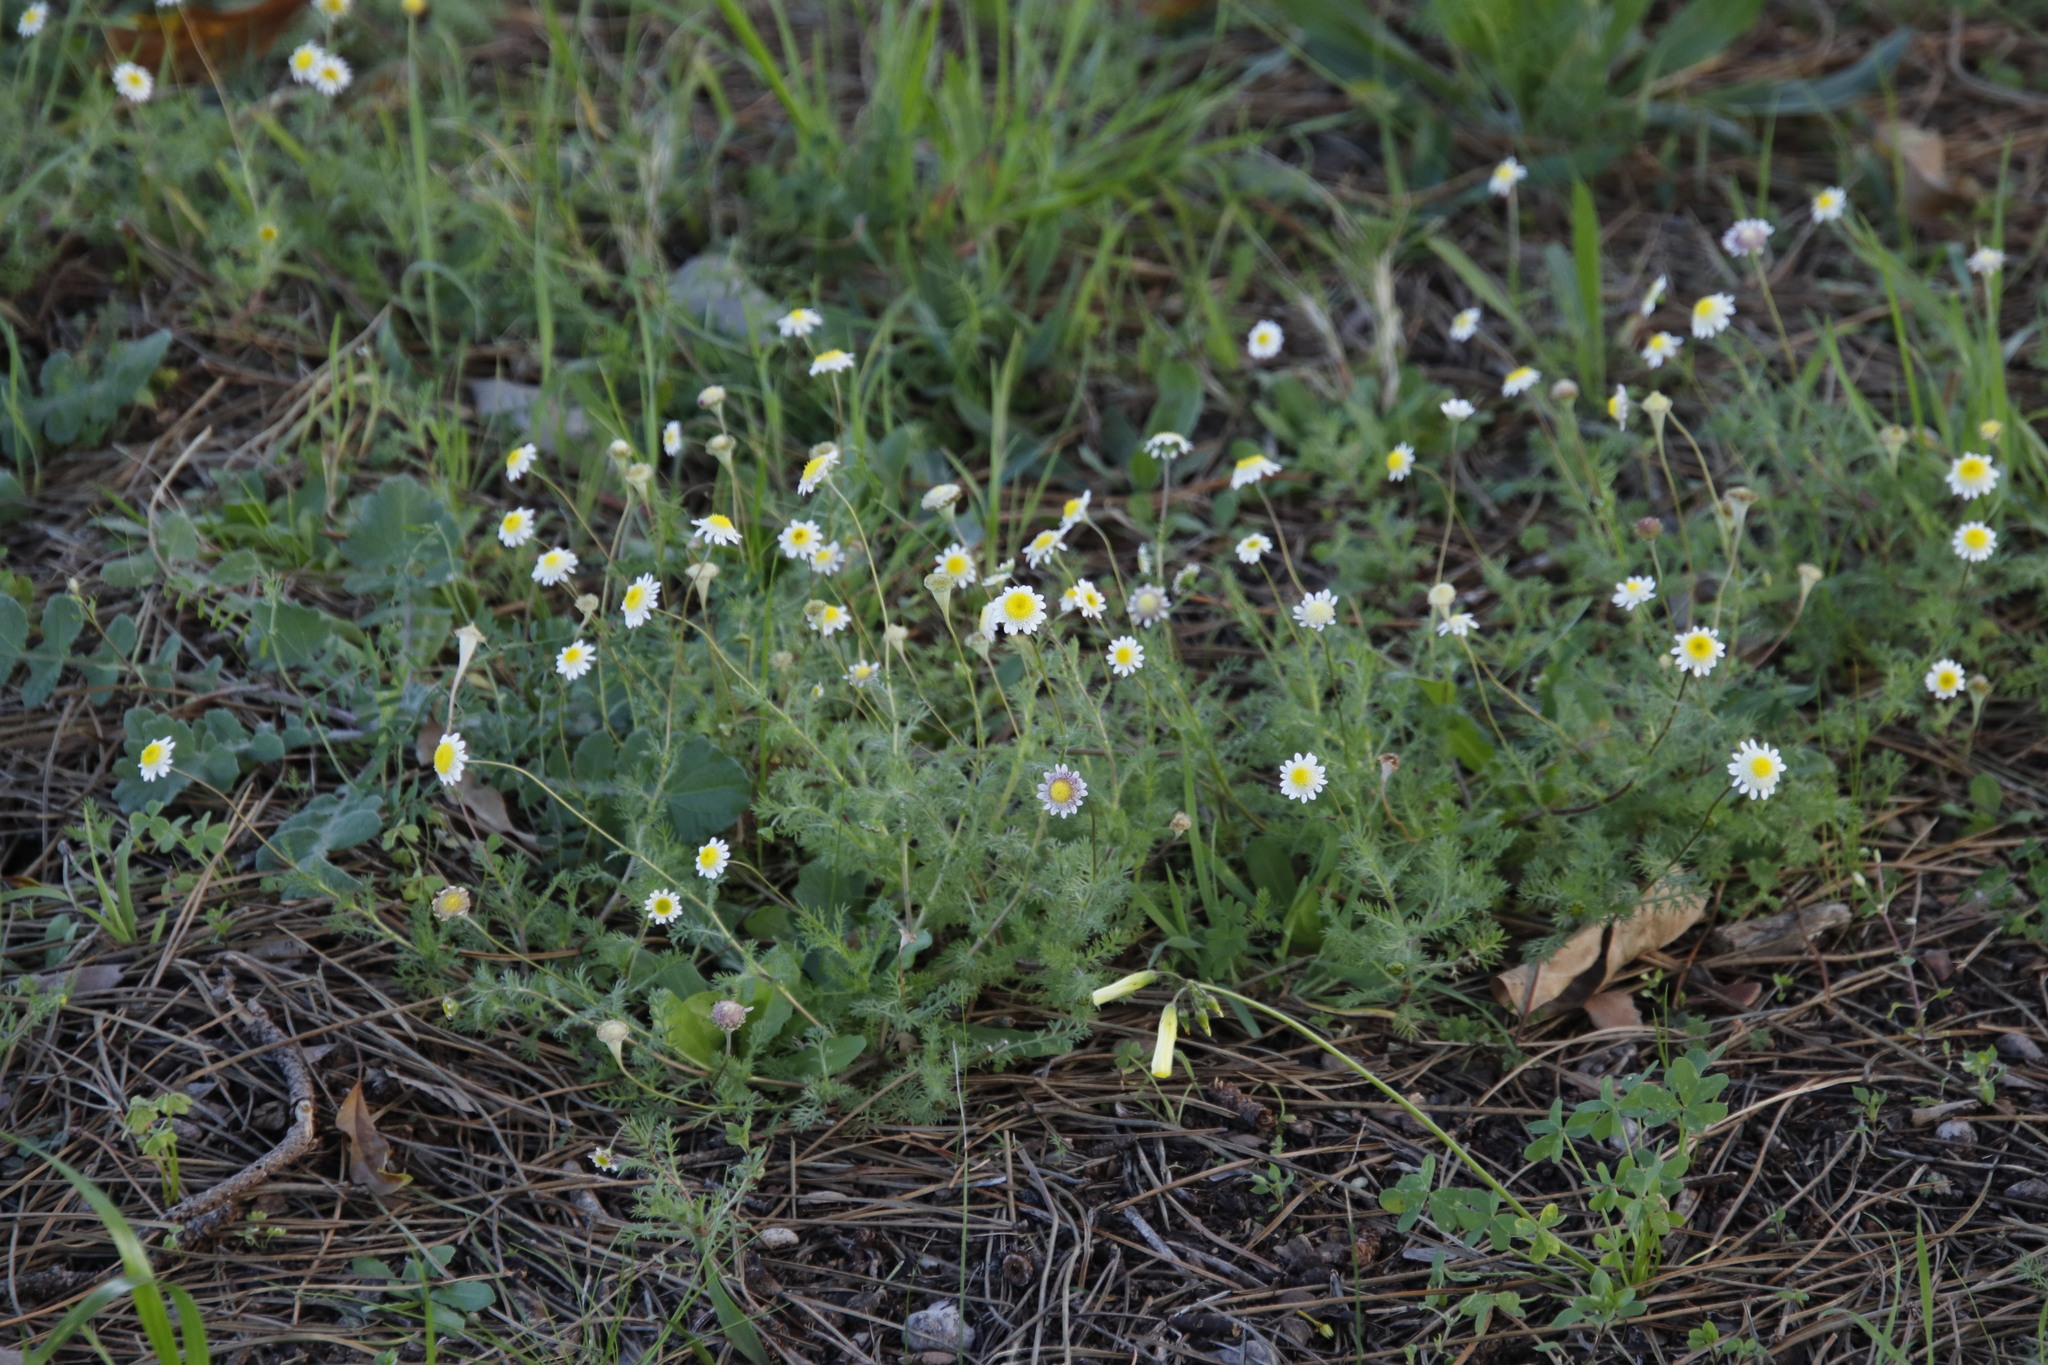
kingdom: Plantae
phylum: Tracheophyta
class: Magnoliopsida
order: Asterales
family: Asteraceae
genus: Cotula
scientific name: Cotula turbinata
